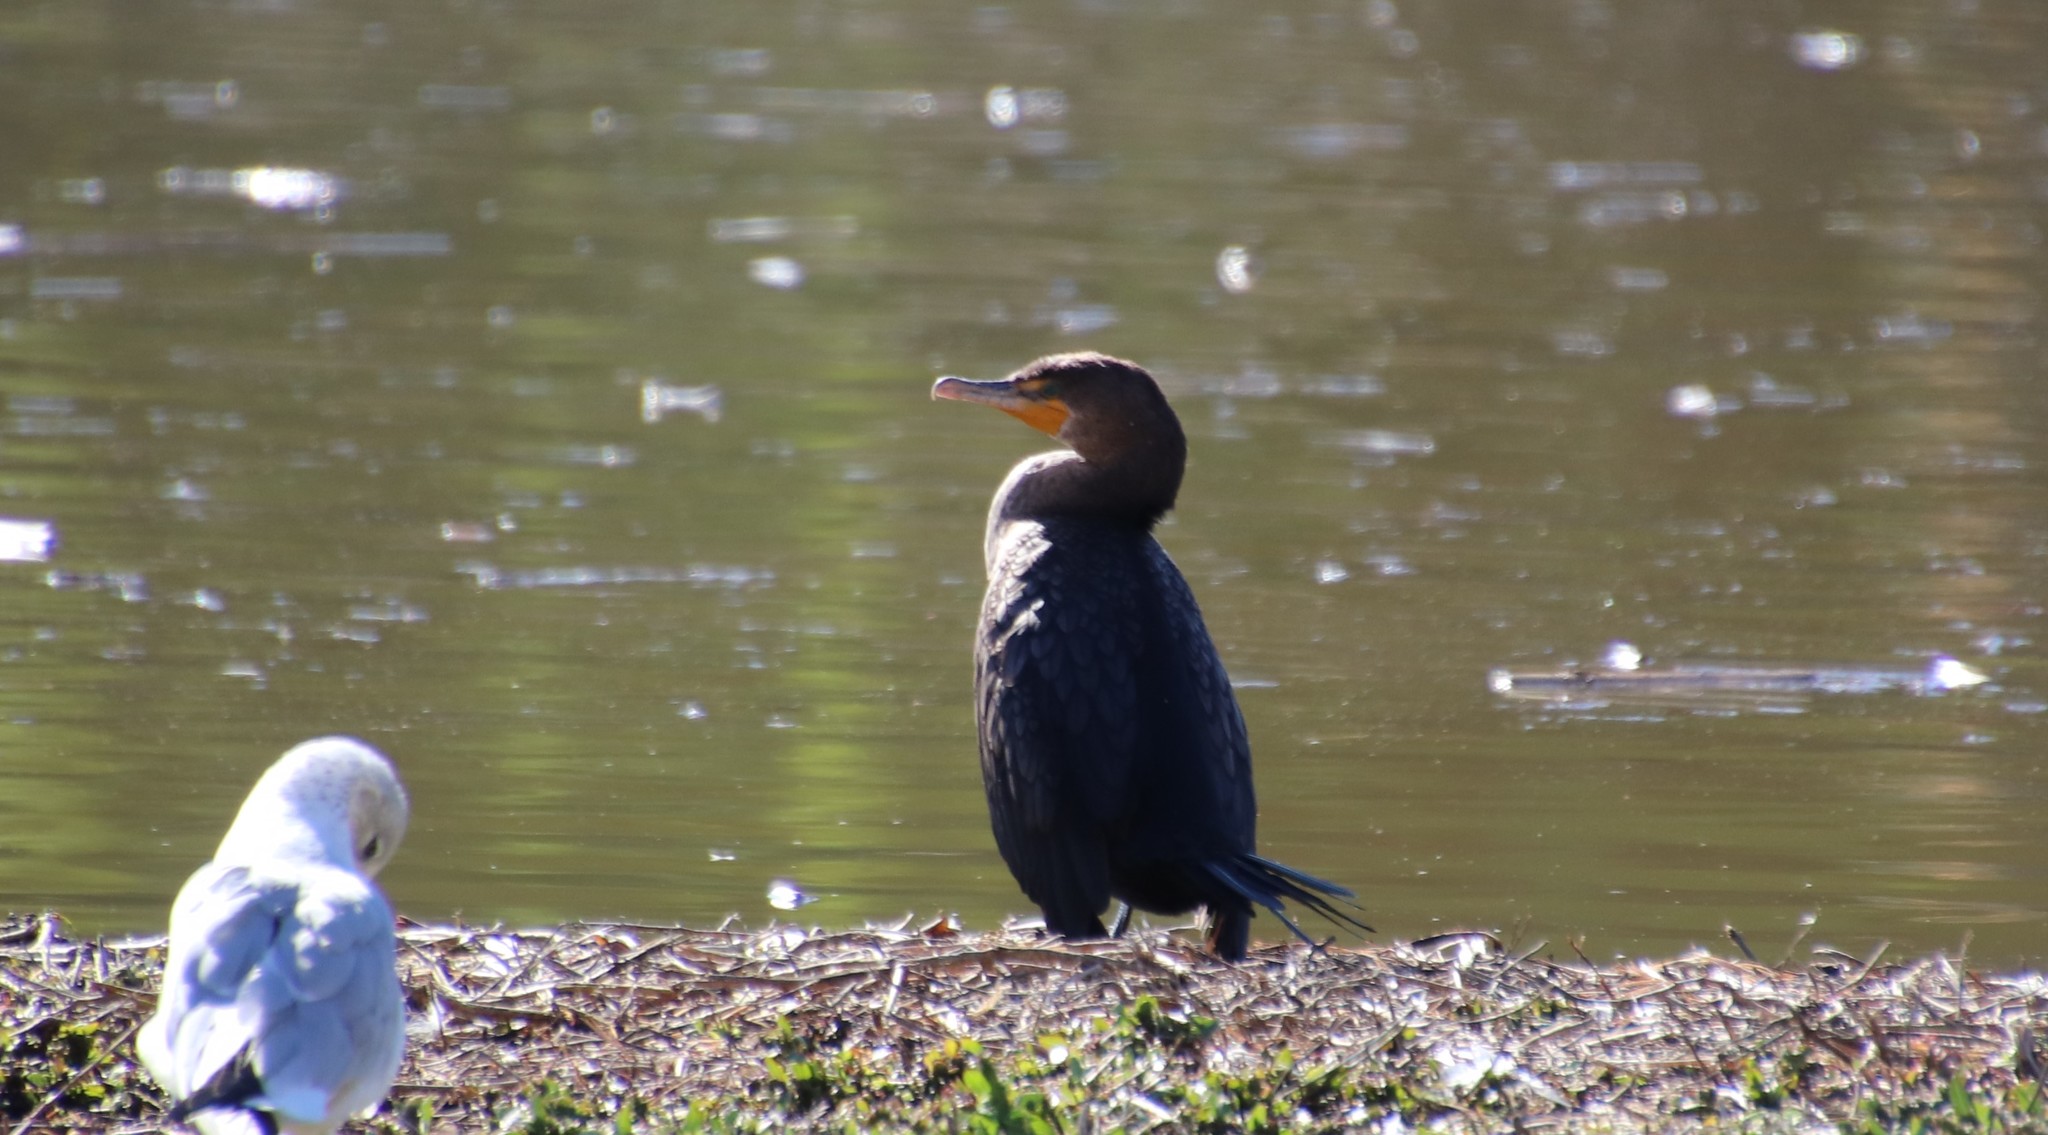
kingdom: Animalia
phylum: Chordata
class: Aves
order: Suliformes
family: Phalacrocoracidae
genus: Phalacrocorax
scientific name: Phalacrocorax auritus
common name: Double-crested cormorant
